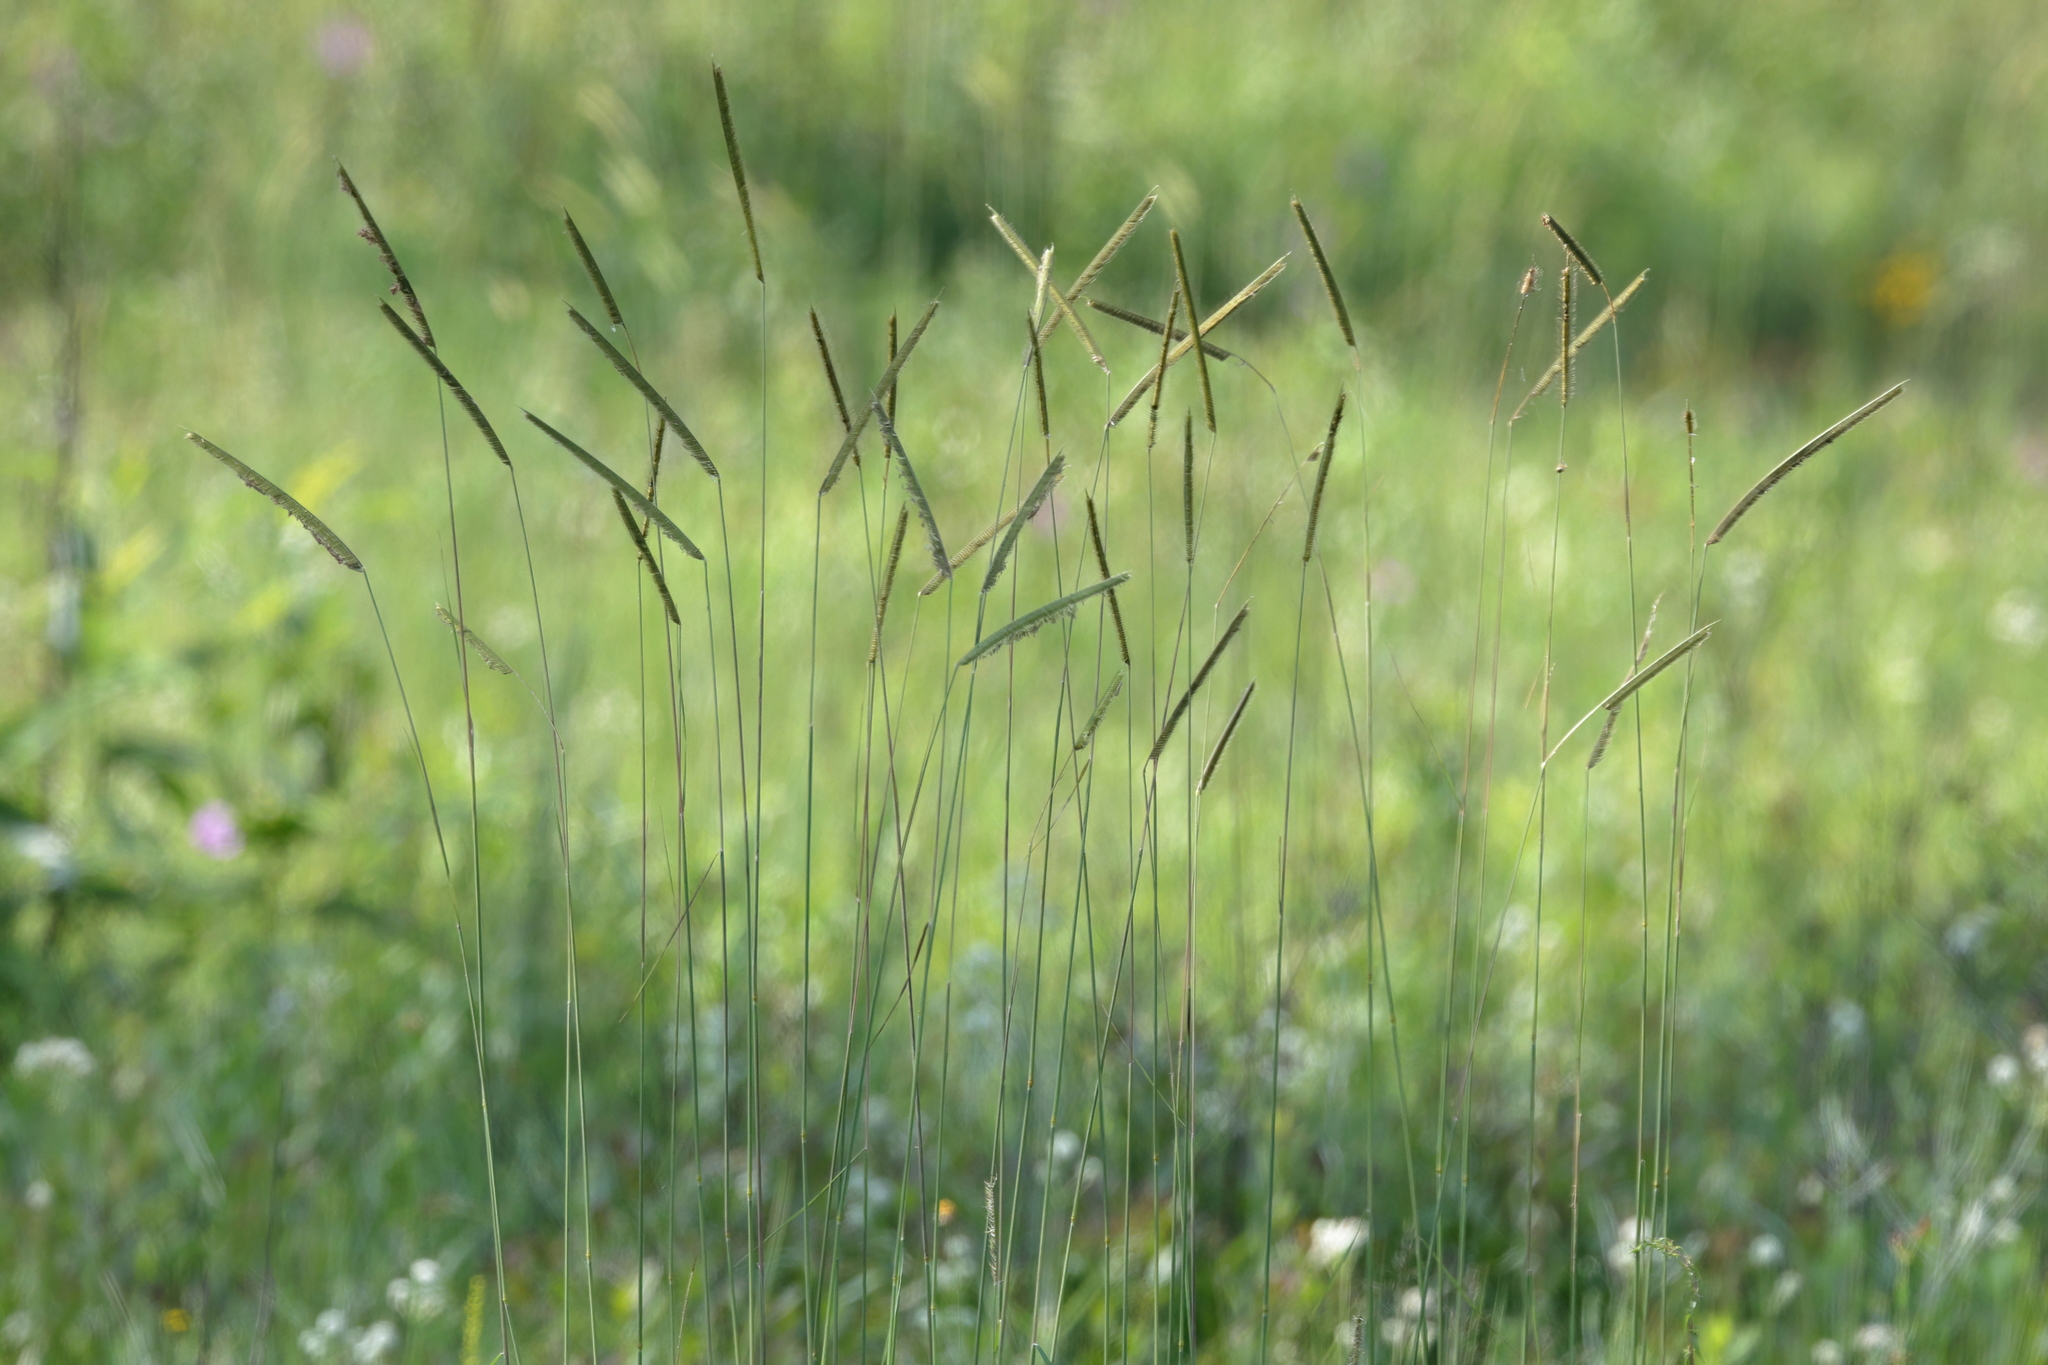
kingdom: Plantae
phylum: Tracheophyta
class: Liliopsida
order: Poales
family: Poaceae
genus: Ctenium
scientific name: Ctenium aromaticum
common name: Toothache grass
